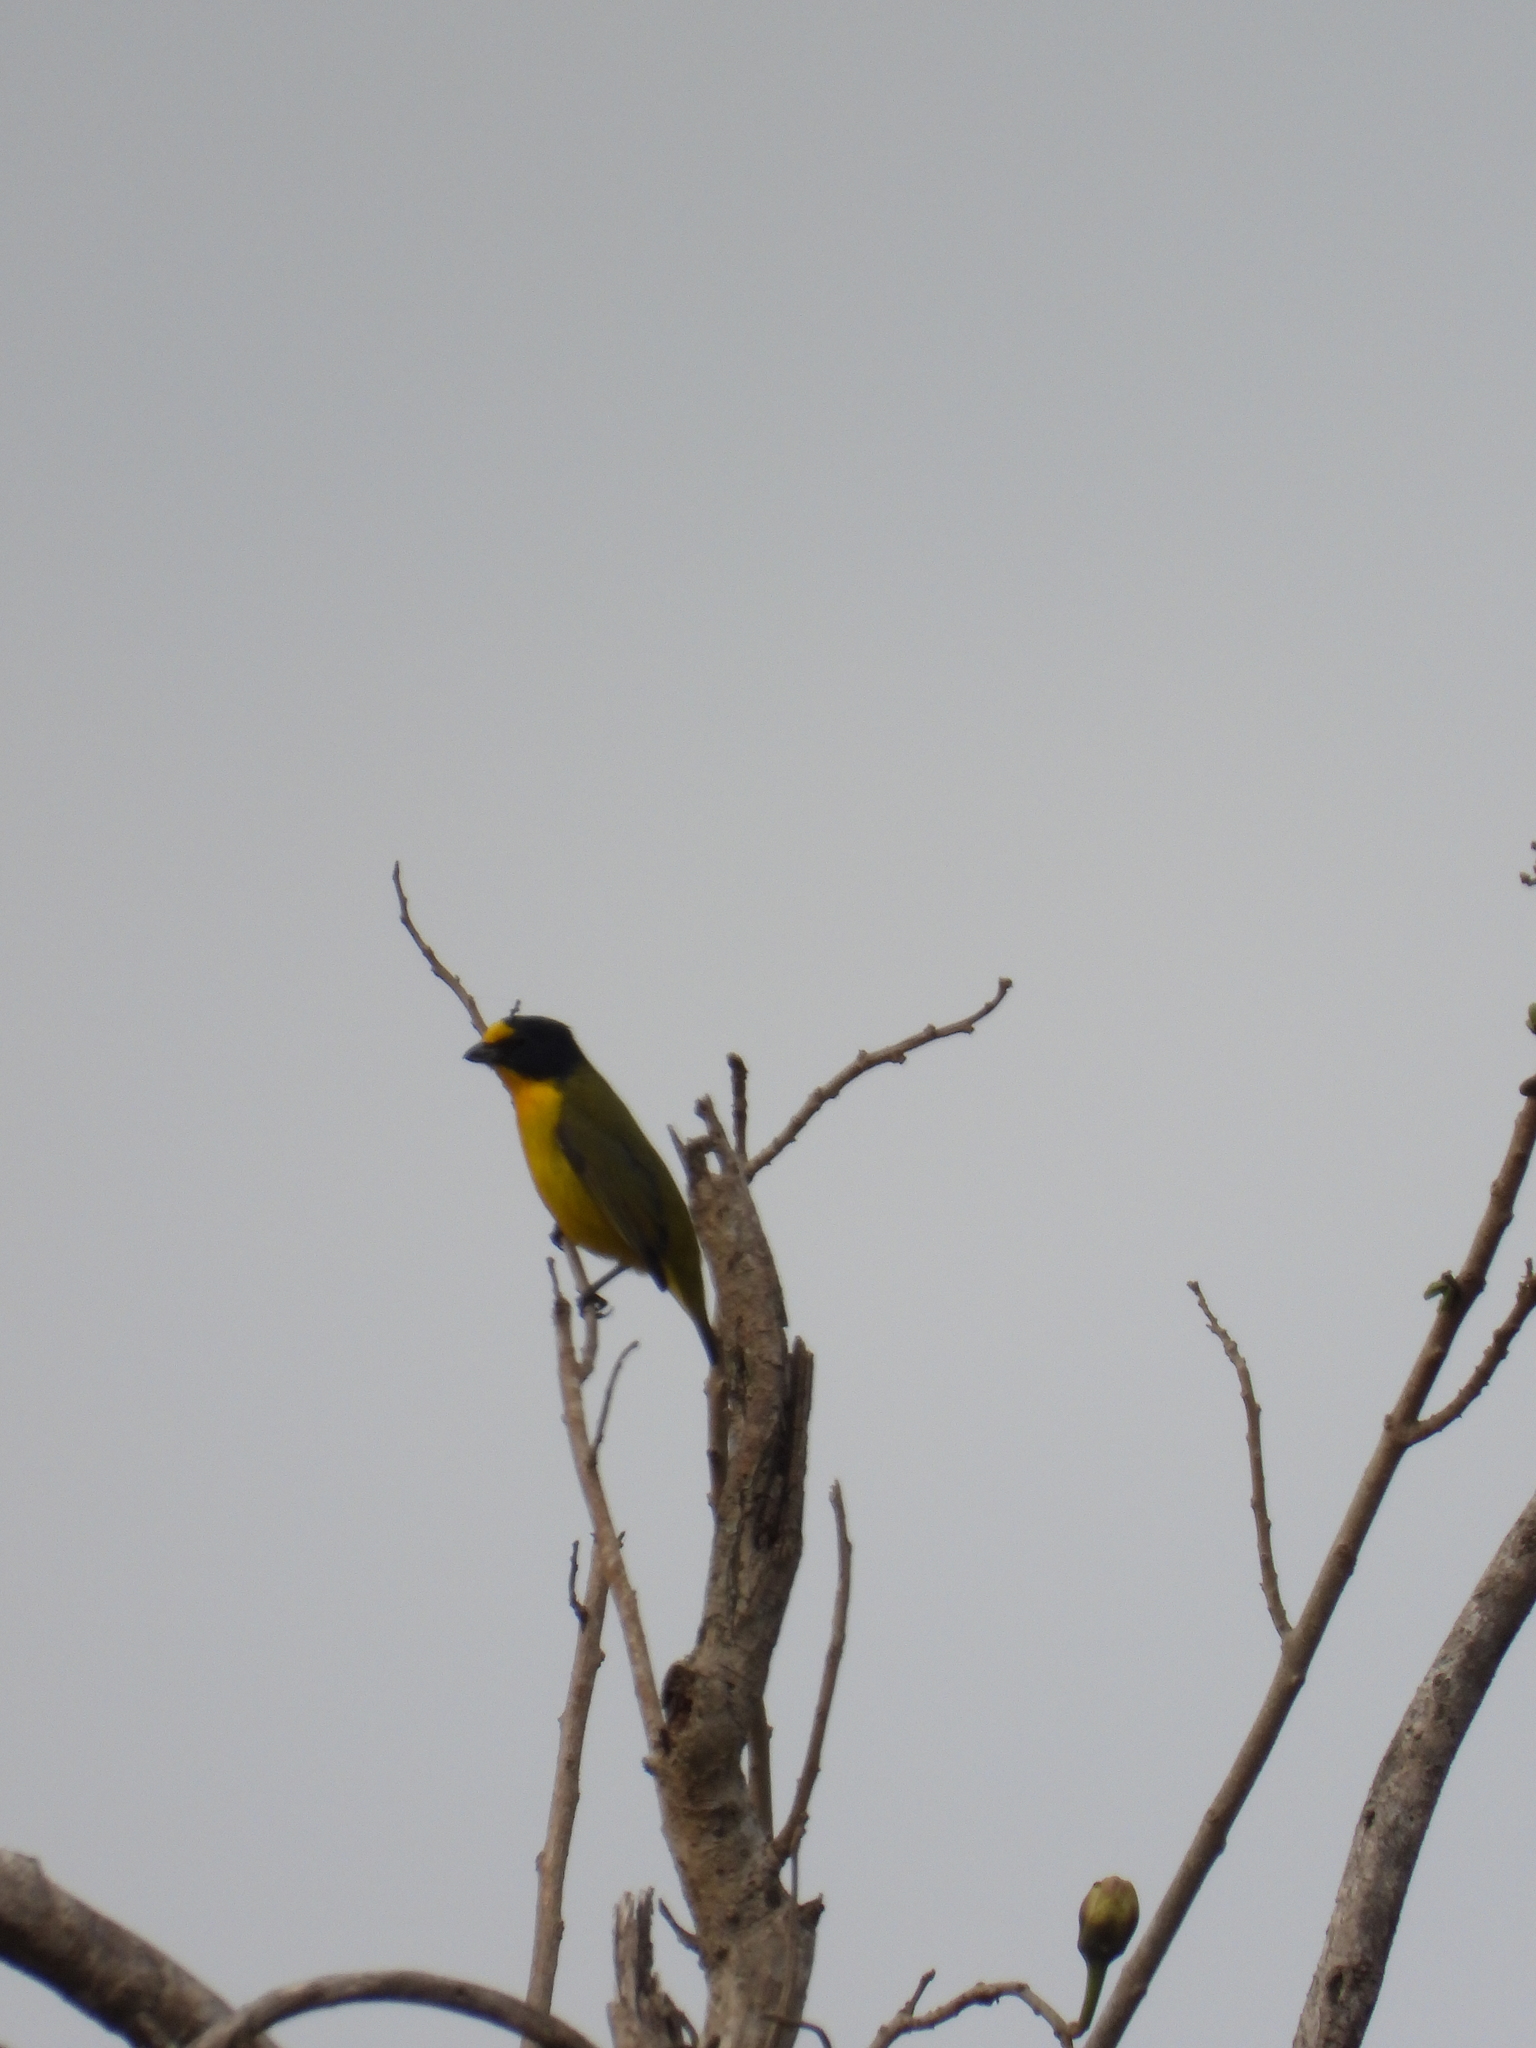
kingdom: Animalia
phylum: Chordata
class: Aves
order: Passeriformes
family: Fringillidae
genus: Euphonia
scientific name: Euphonia hirundinacea
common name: Yellow-throated euphonia
